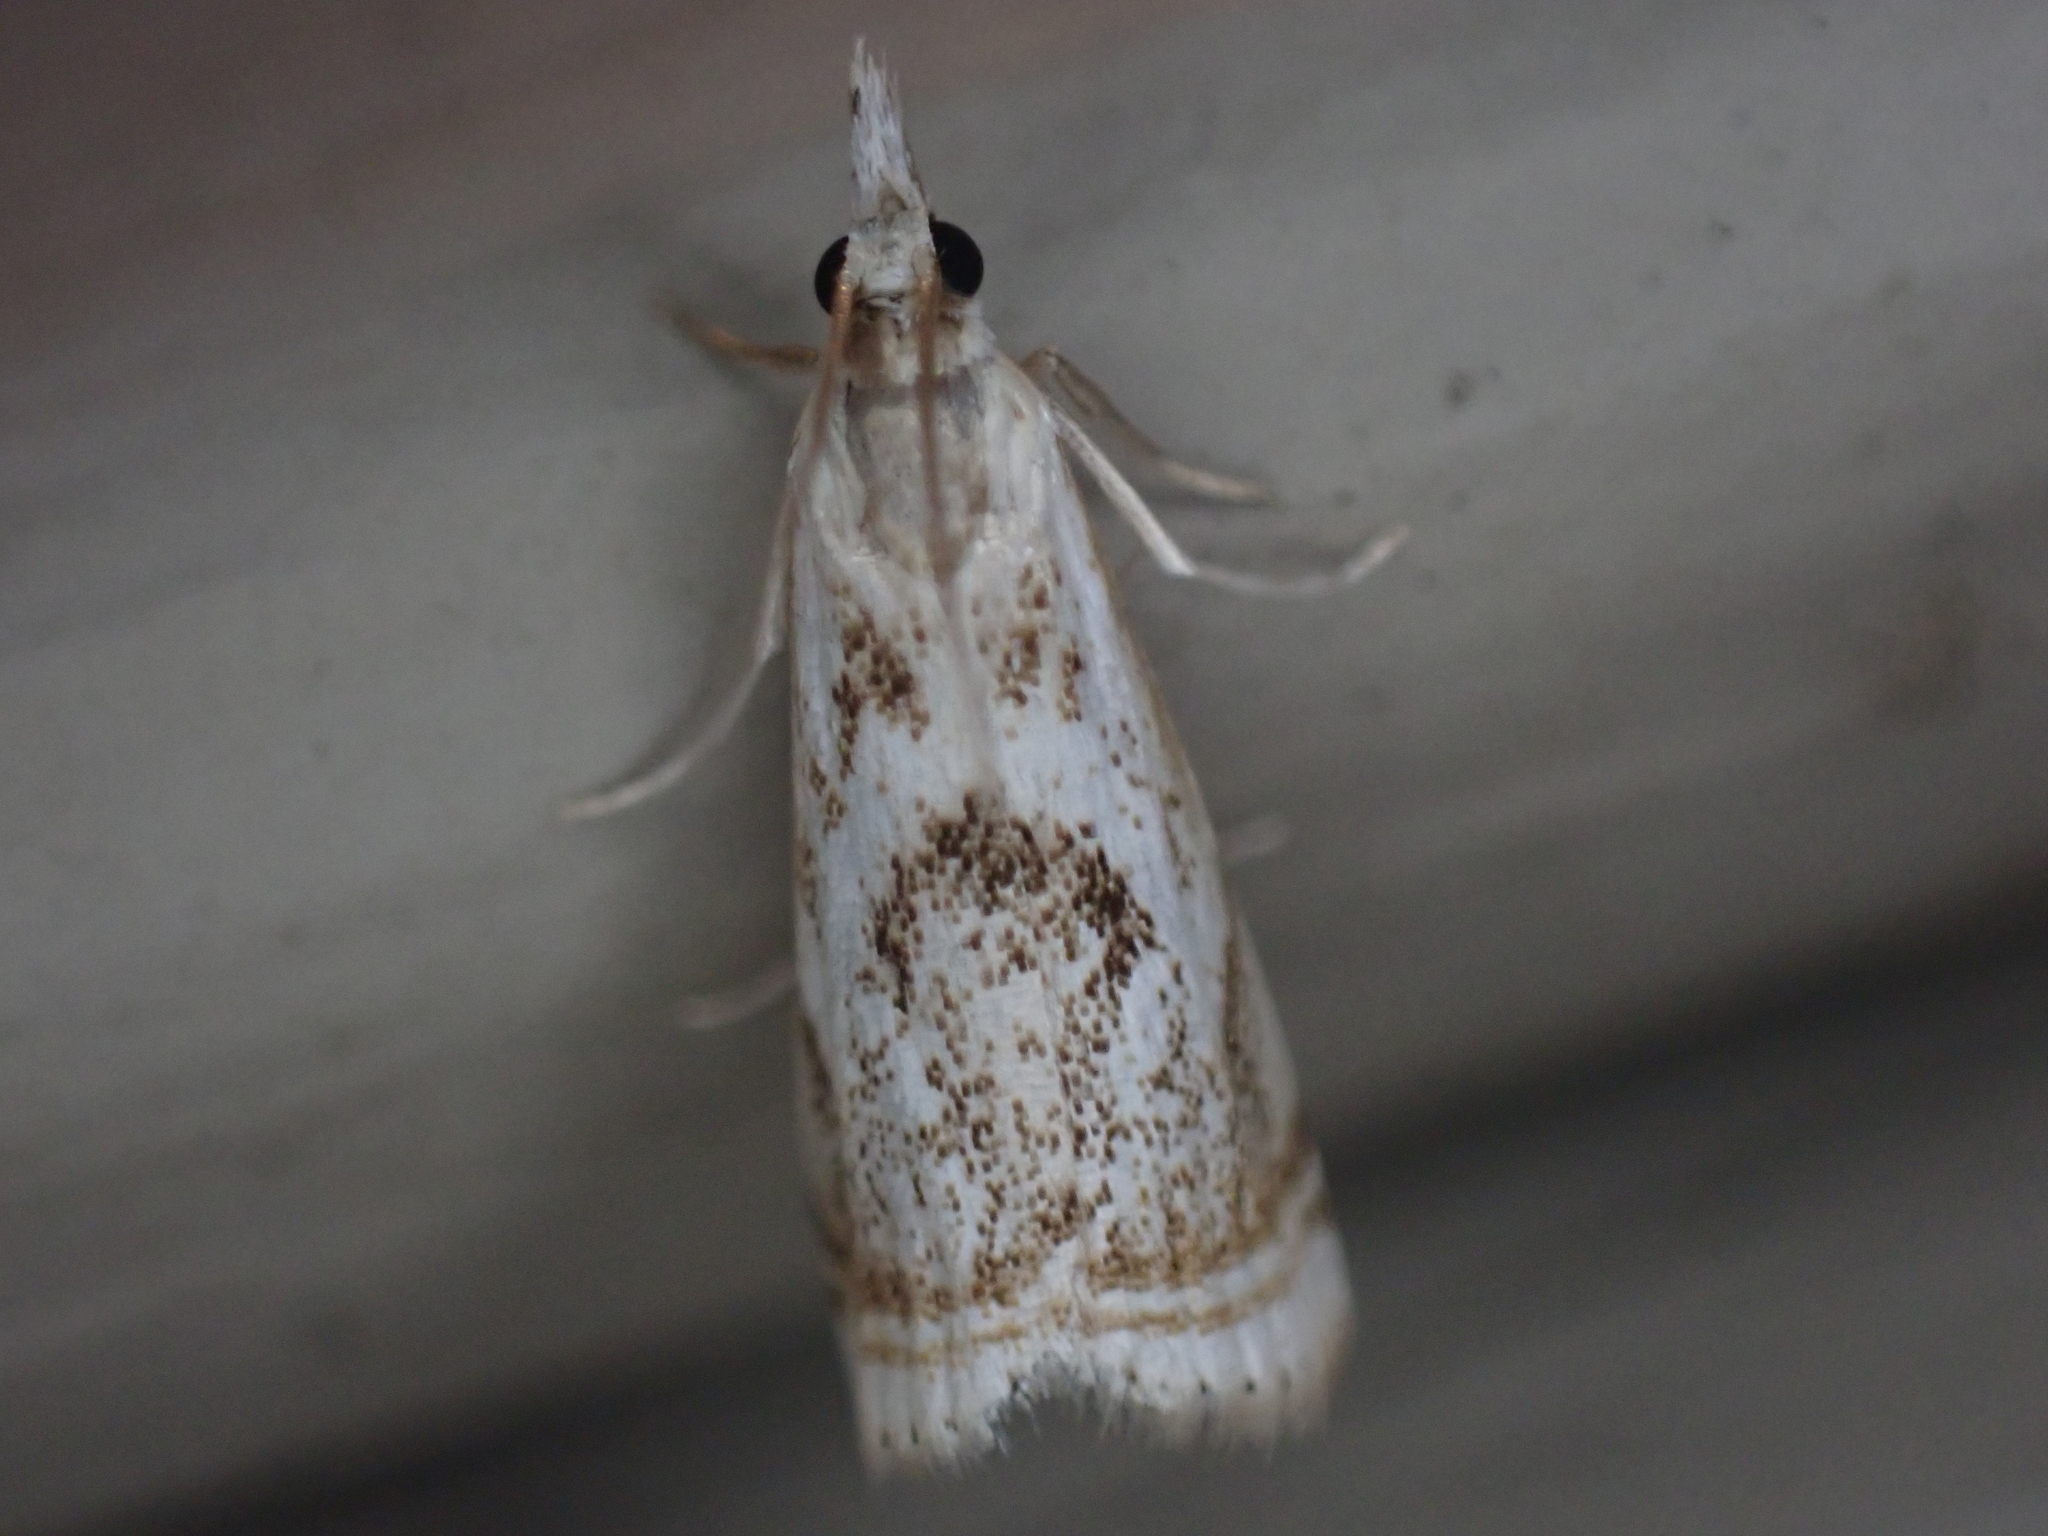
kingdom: Animalia
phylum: Arthropoda
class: Insecta
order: Lepidoptera
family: Crambidae
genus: Microcrambus
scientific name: Microcrambus elegans
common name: Elegant grass-veneer
